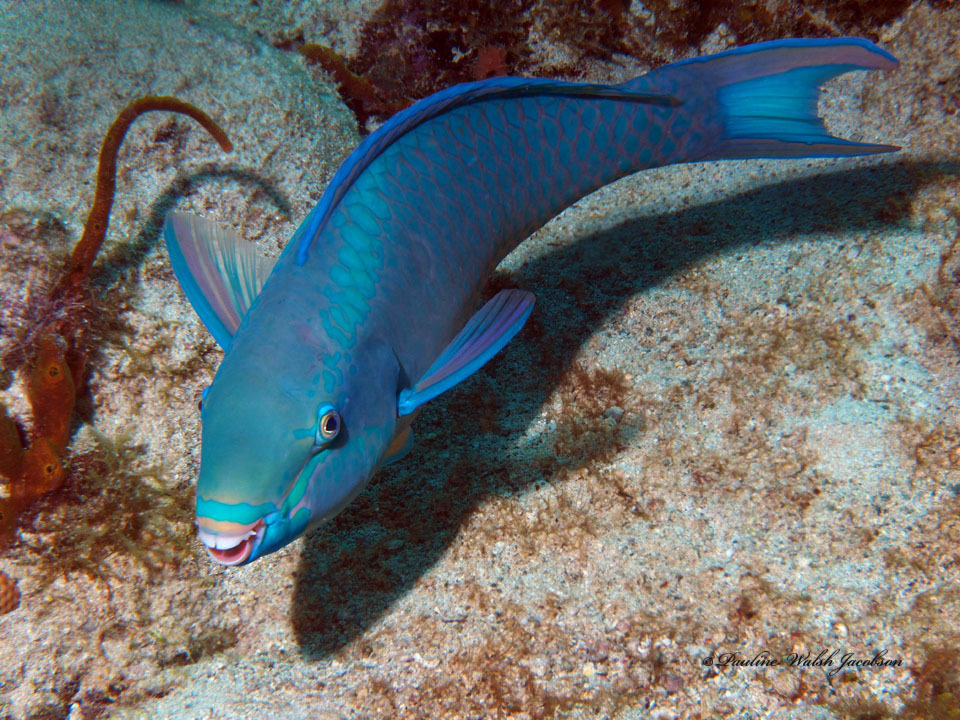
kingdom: Animalia
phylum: Chordata
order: Perciformes
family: Scaridae
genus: Scarus
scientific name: Scarus vetula
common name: Queen parrotfish
